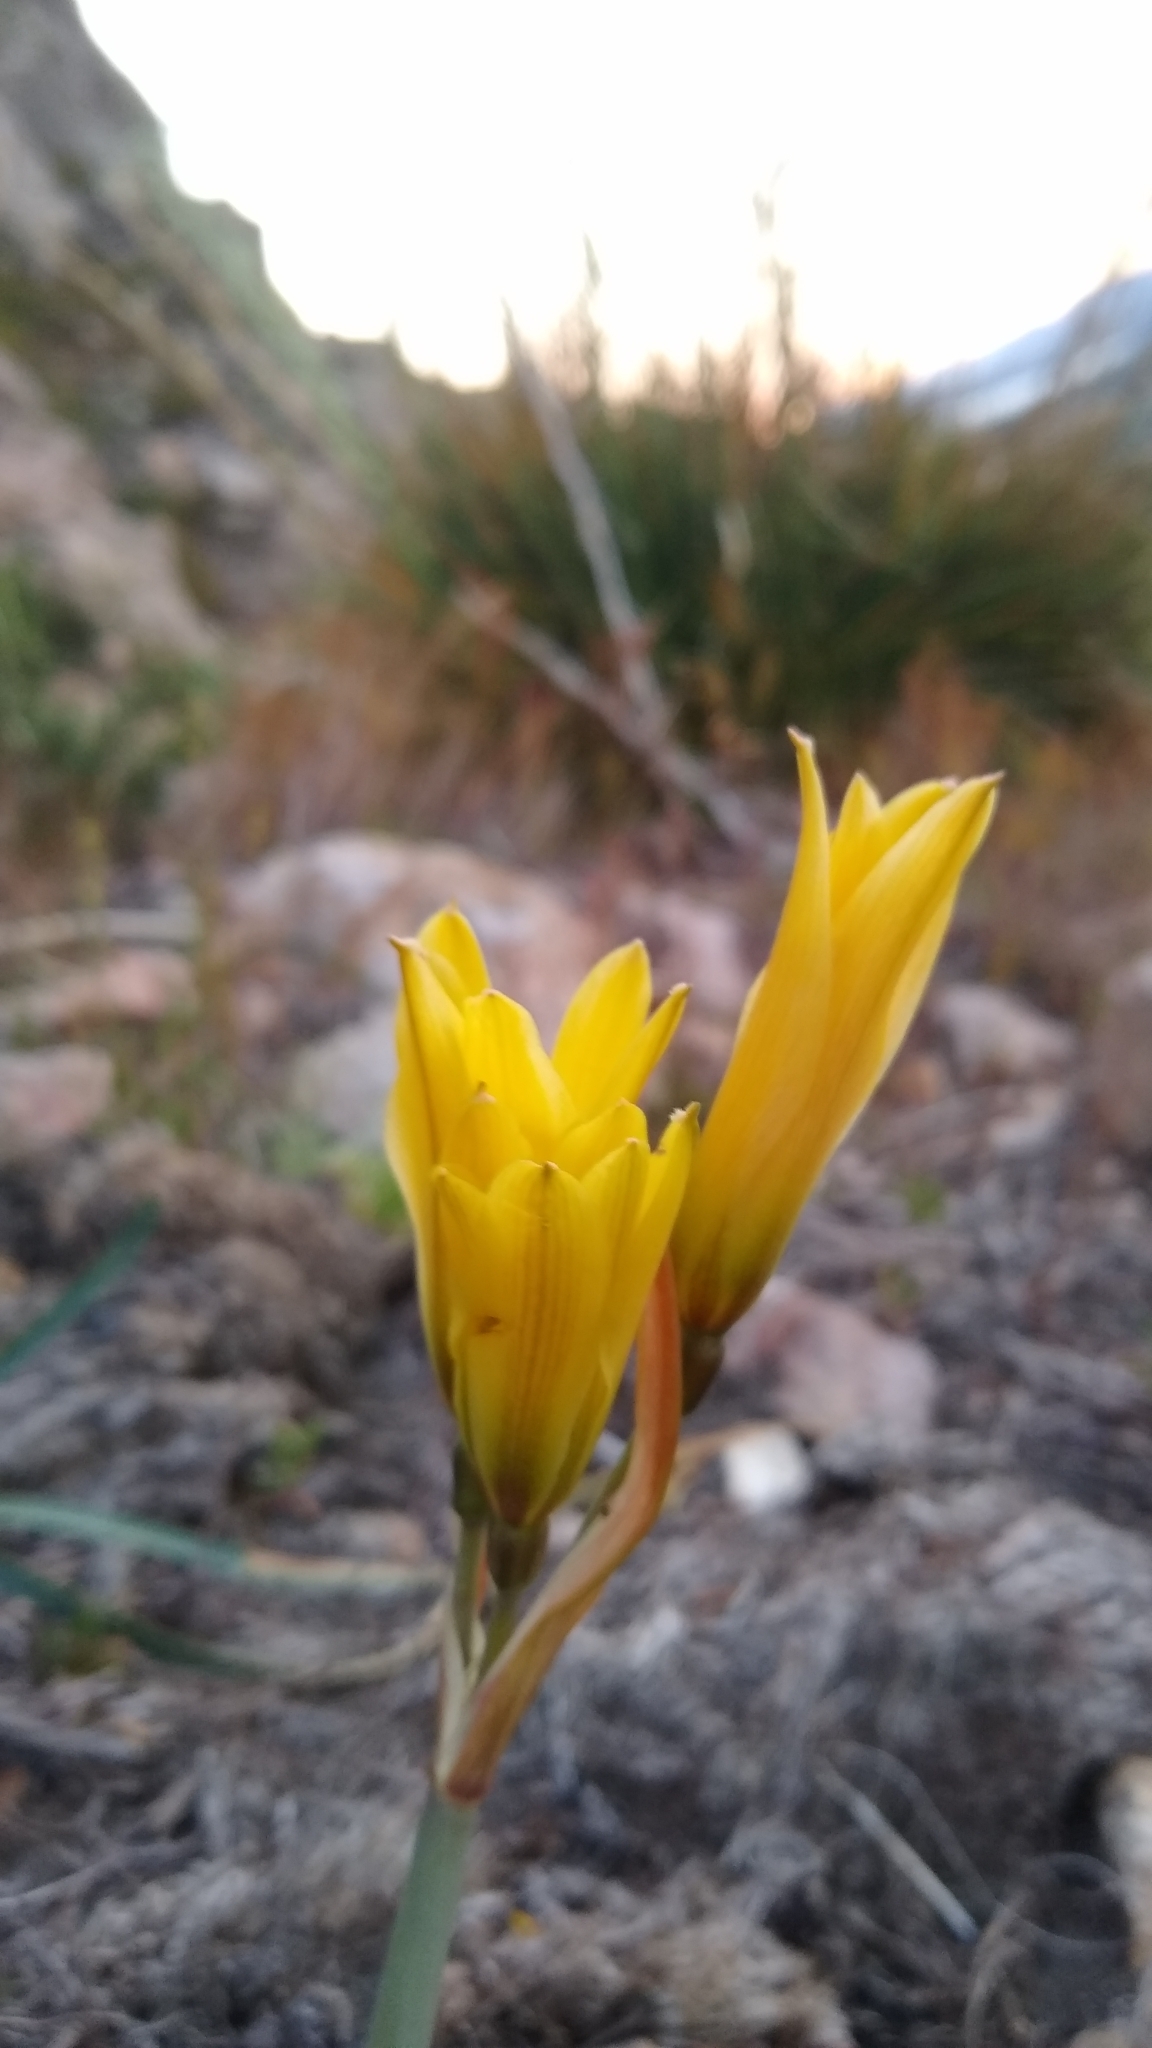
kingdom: Plantae
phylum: Tracheophyta
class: Liliopsida
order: Asparagales
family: Amaryllidaceae
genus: Zephyranthes
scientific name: Zephyranthes gilliesiana
